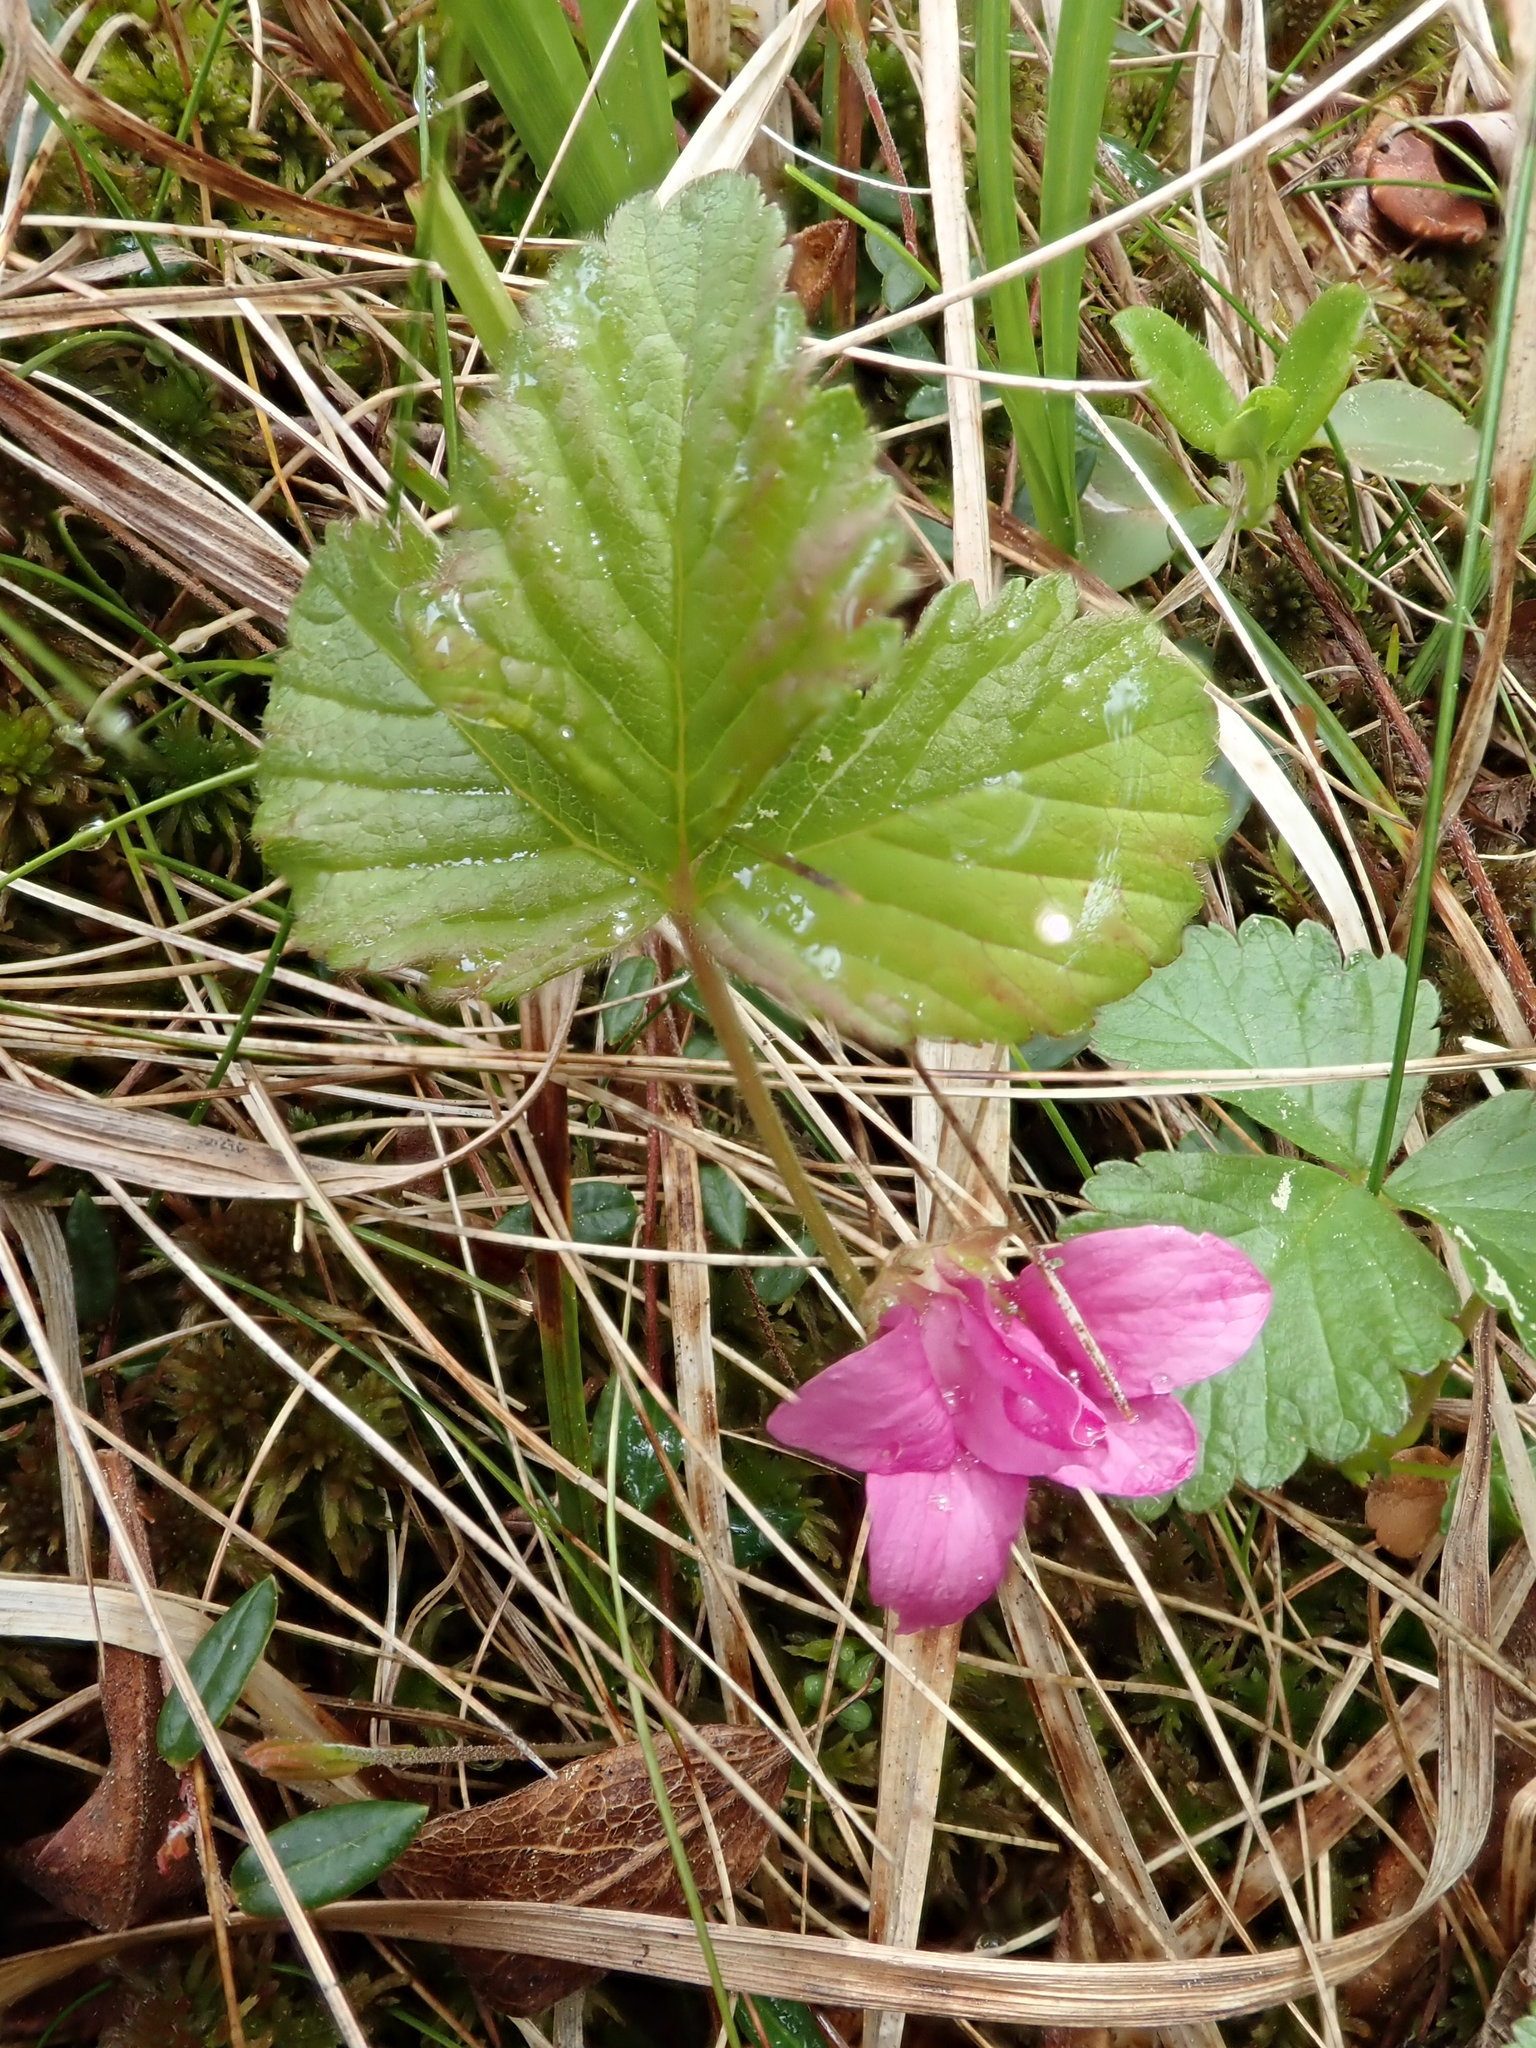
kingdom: Plantae
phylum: Tracheophyta
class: Magnoliopsida
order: Rosales
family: Rosaceae
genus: Rubus
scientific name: Rubus arcticus
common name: Arctic bramble
